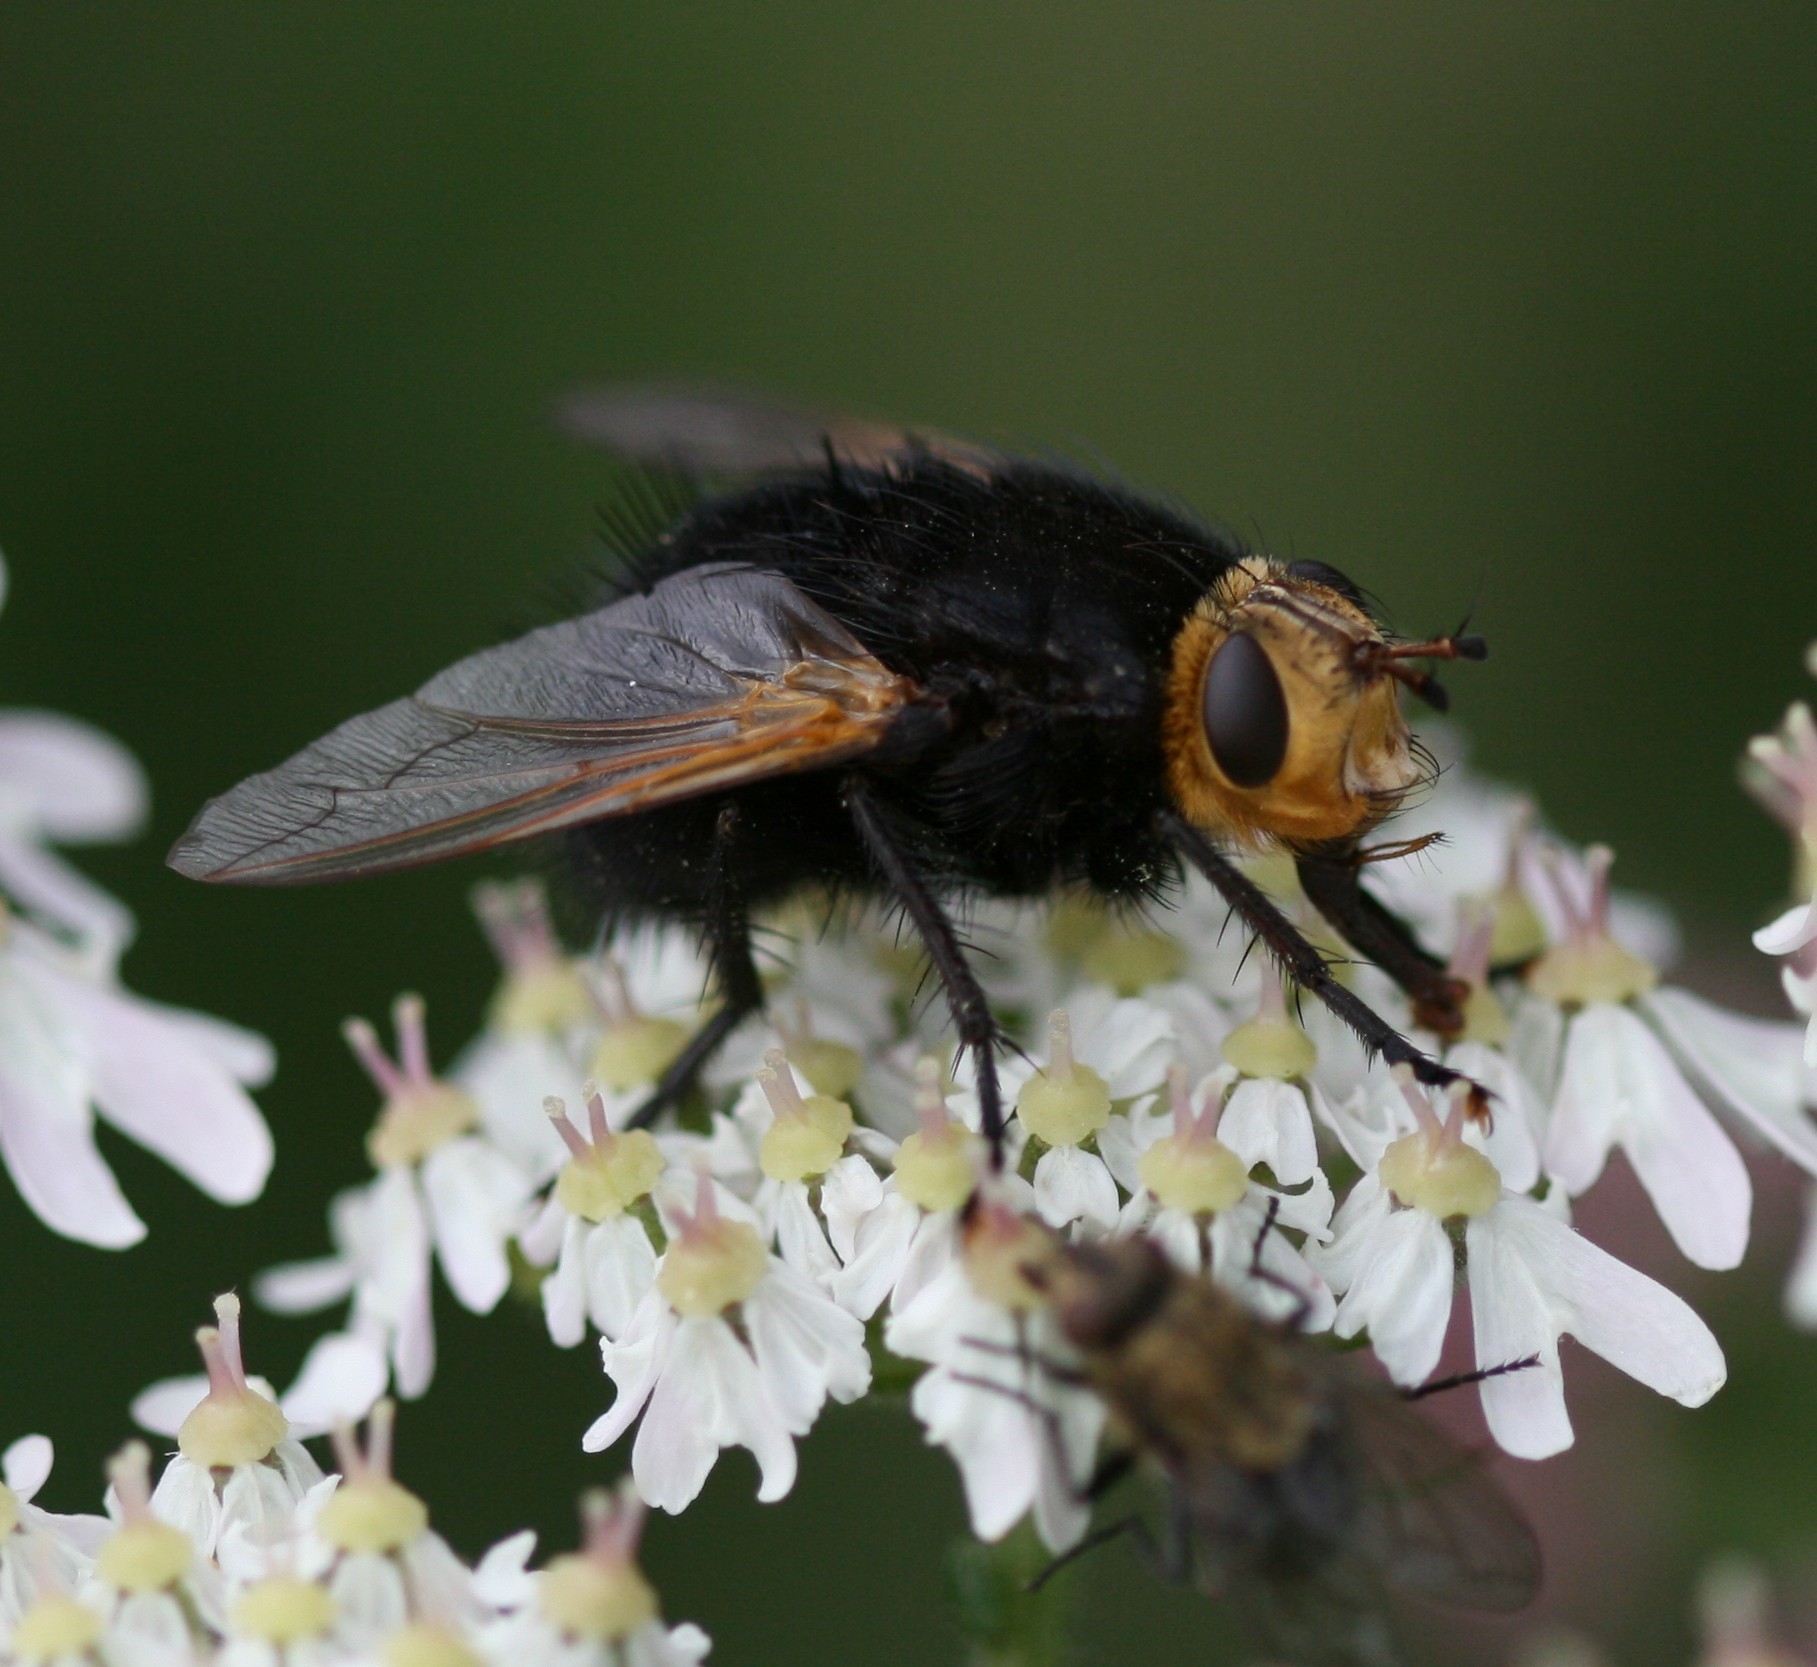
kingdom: Animalia
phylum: Arthropoda
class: Insecta
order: Diptera
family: Tachinidae
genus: Tachina
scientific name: Tachina grossa
